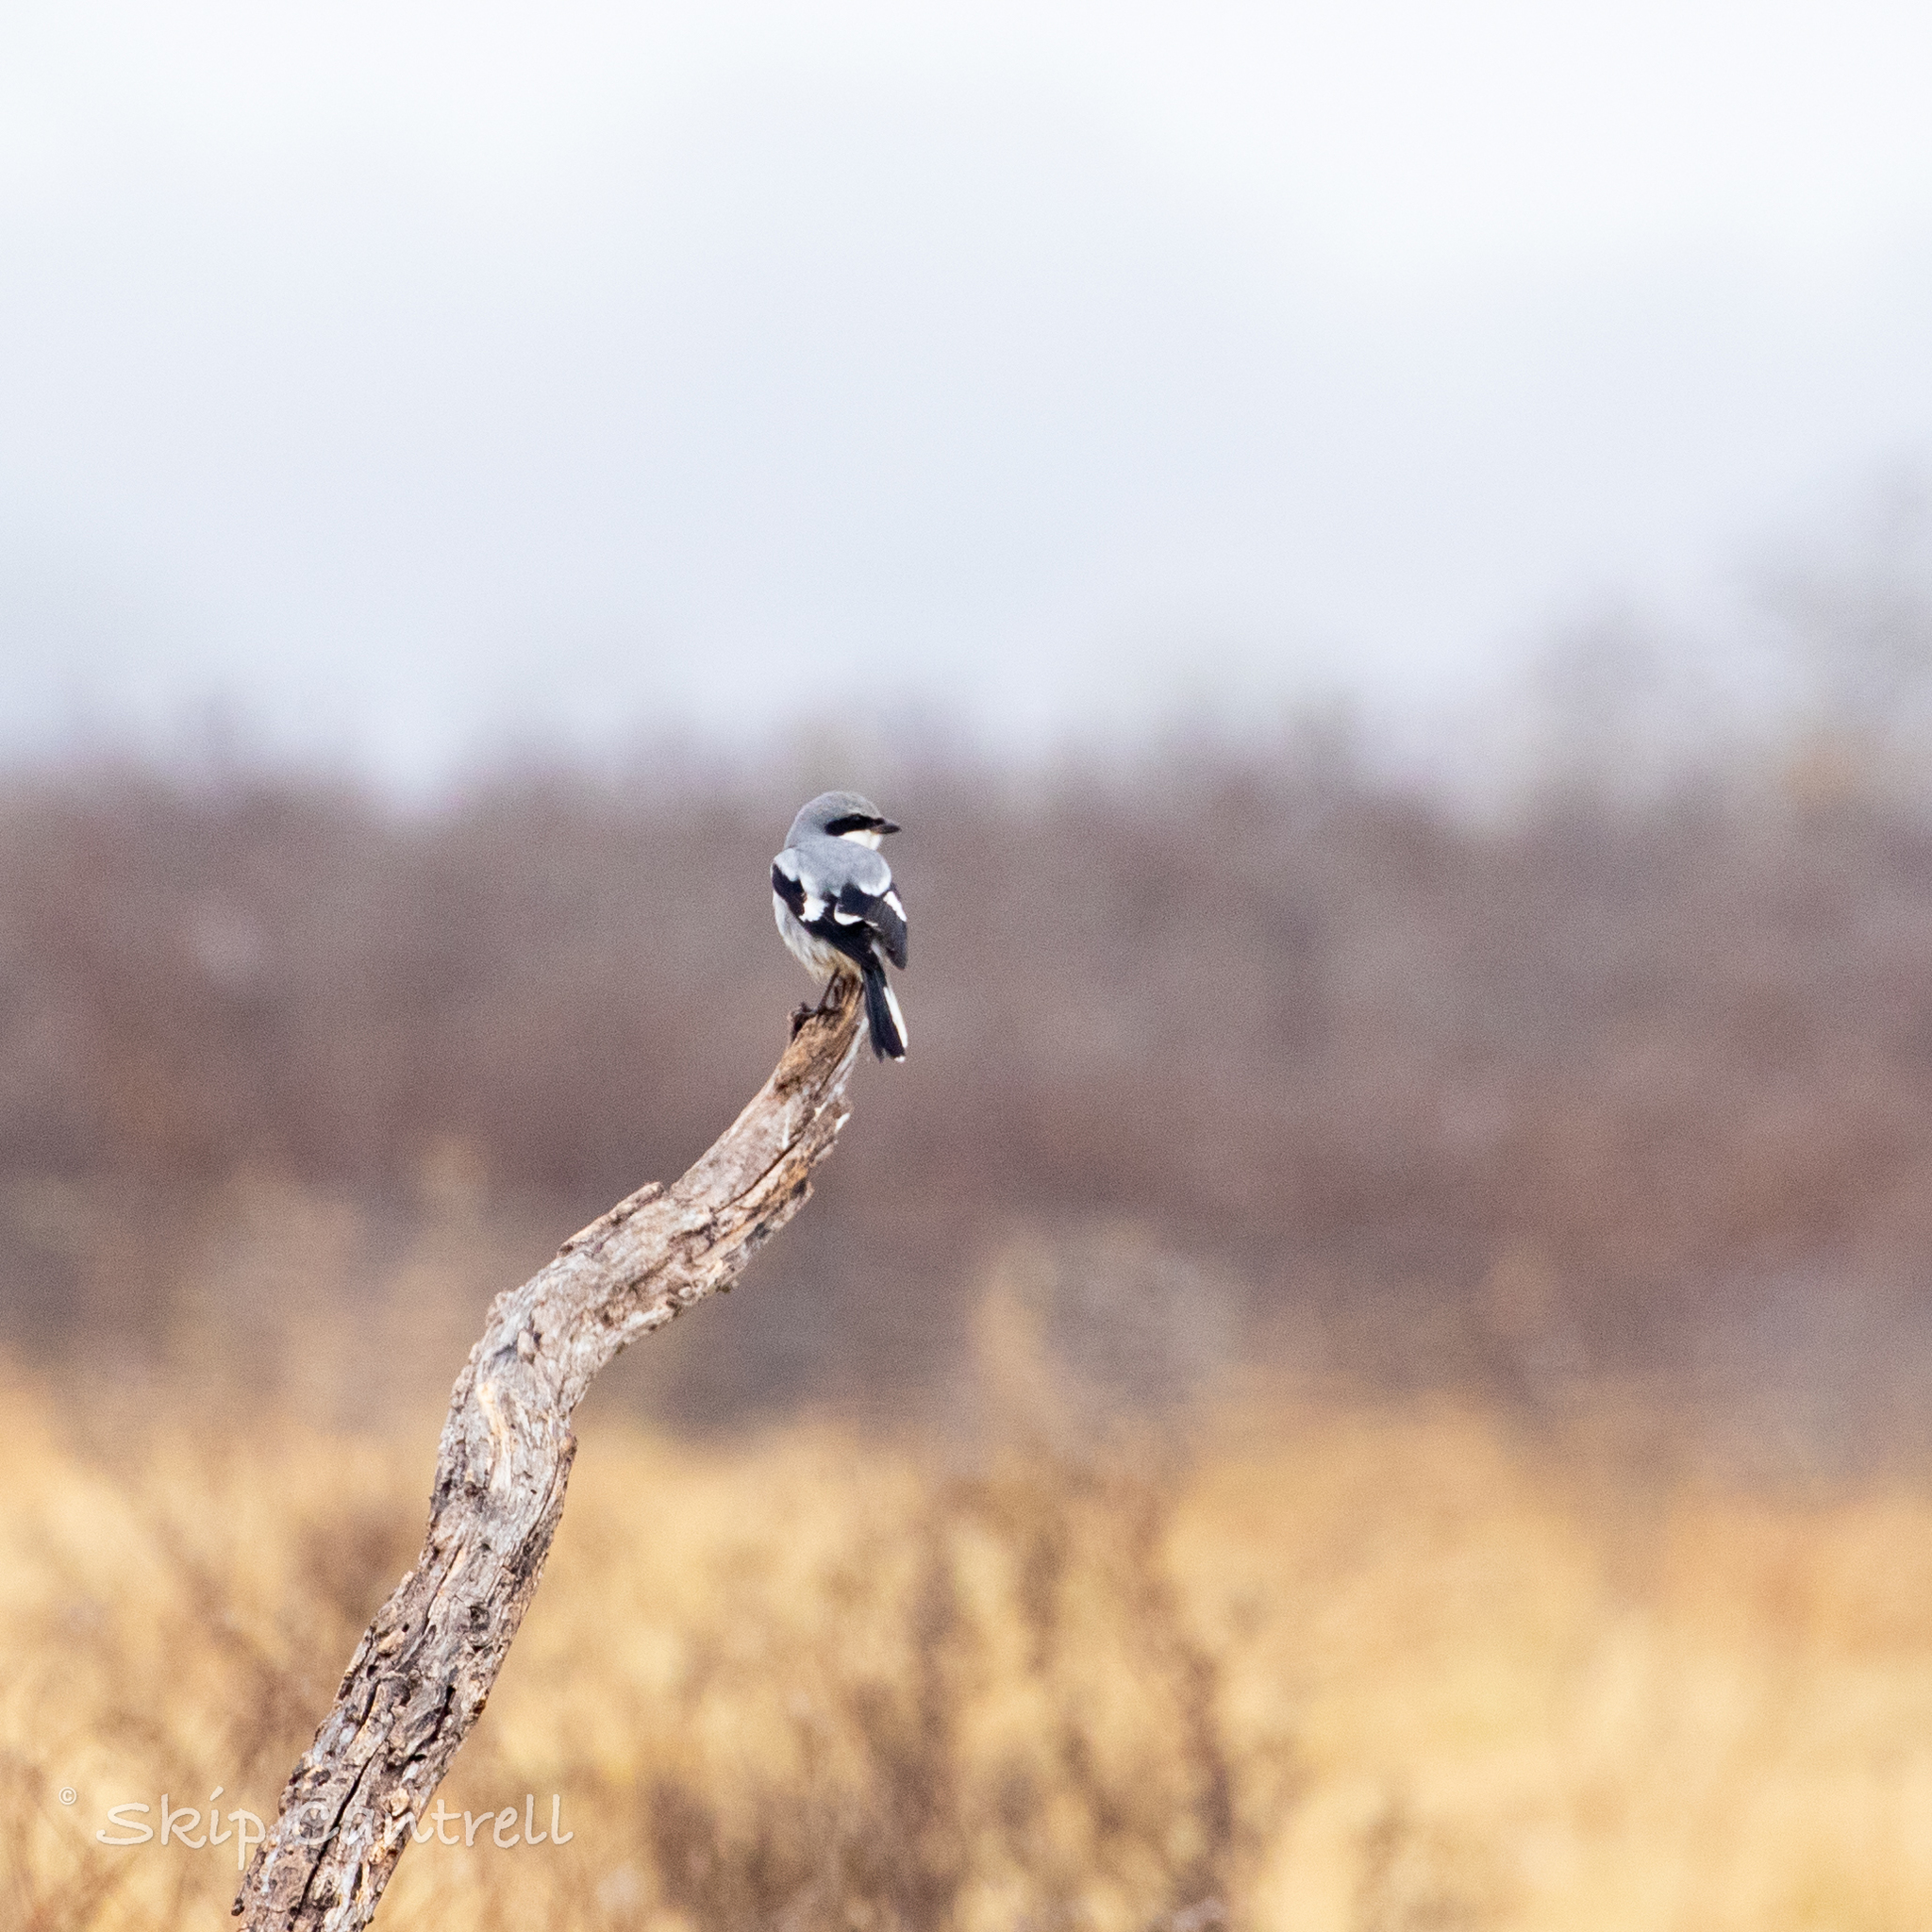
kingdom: Animalia
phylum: Chordata
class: Aves
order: Passeriformes
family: Laniidae
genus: Lanius
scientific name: Lanius ludovicianus
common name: Loggerhead shrike
